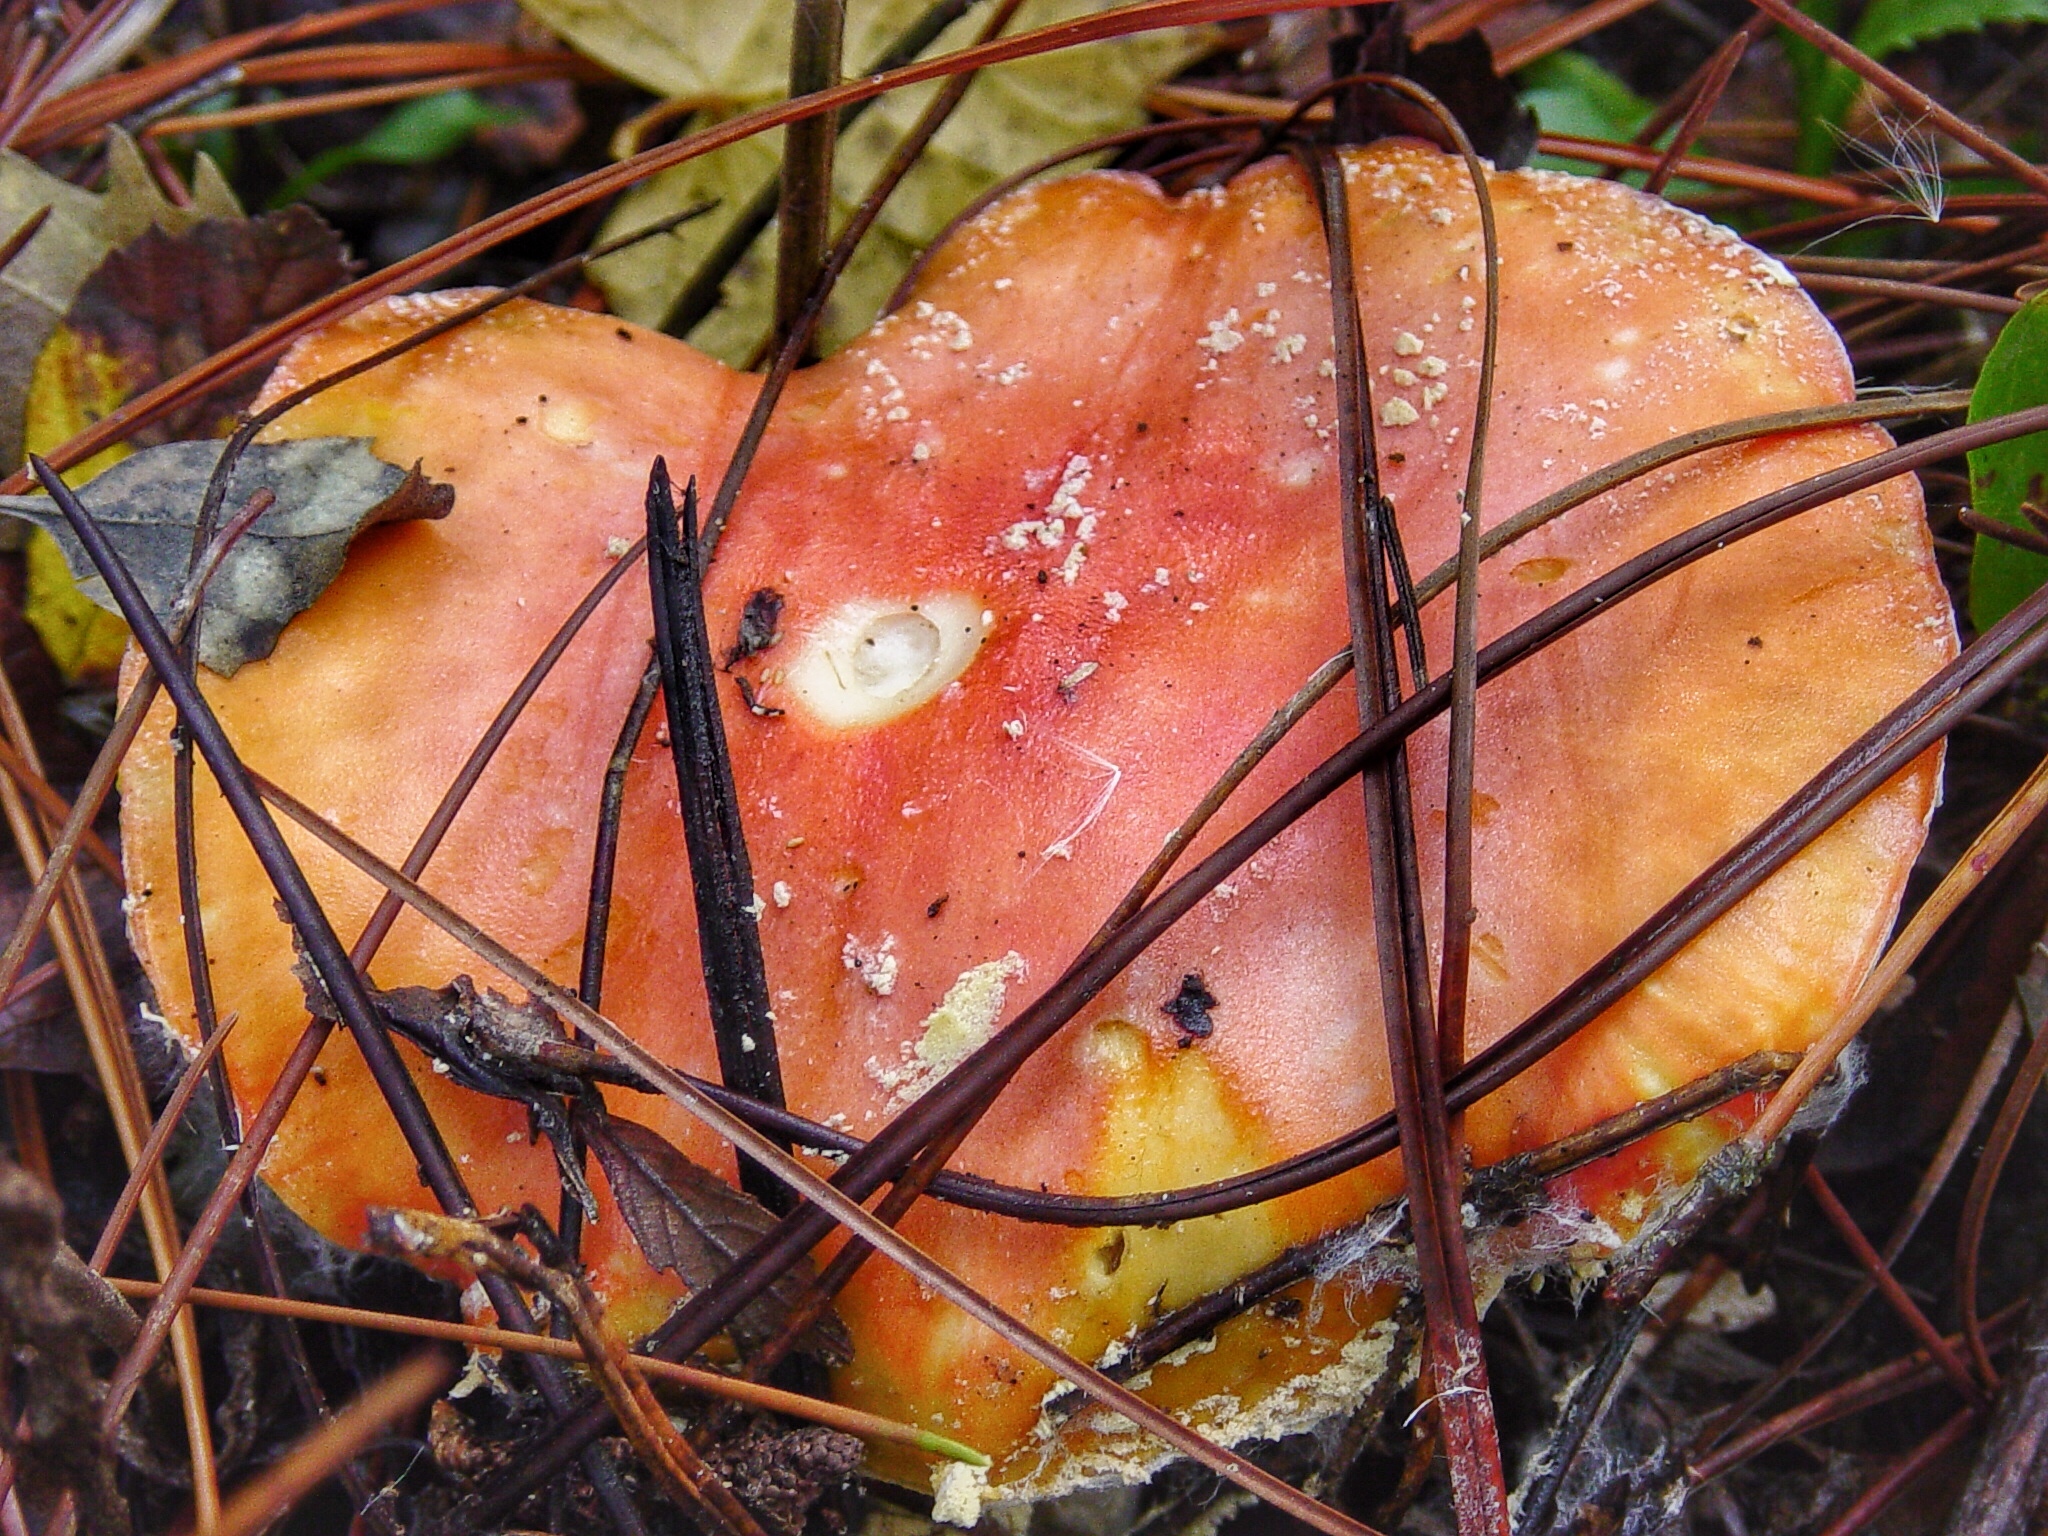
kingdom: Fungi
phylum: Basidiomycota
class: Agaricomycetes
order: Agaricales
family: Amanitaceae
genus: Amanita
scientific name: Amanita persicina
